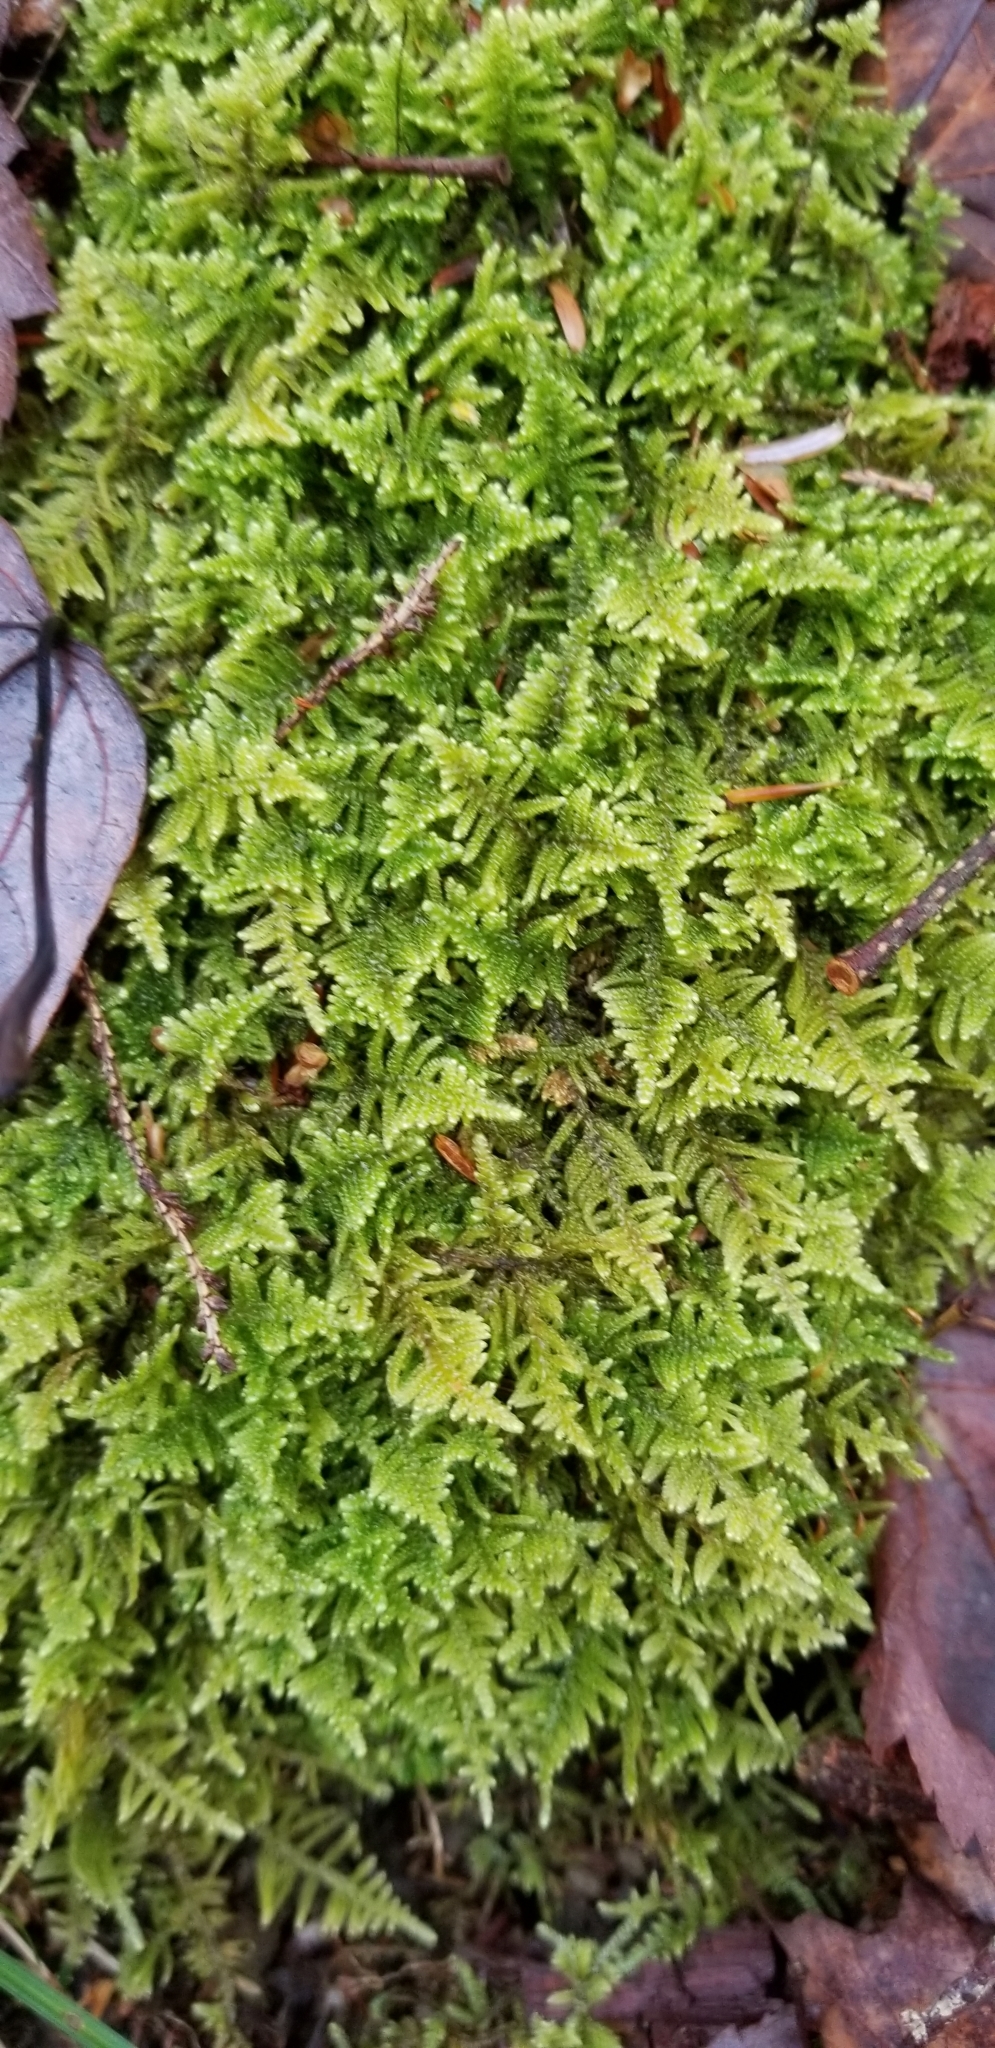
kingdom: Plantae
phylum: Bryophyta
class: Bryopsida
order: Hypnales
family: Callicladiaceae
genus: Callicladium
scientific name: Callicladium imponens
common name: Brocade moss
